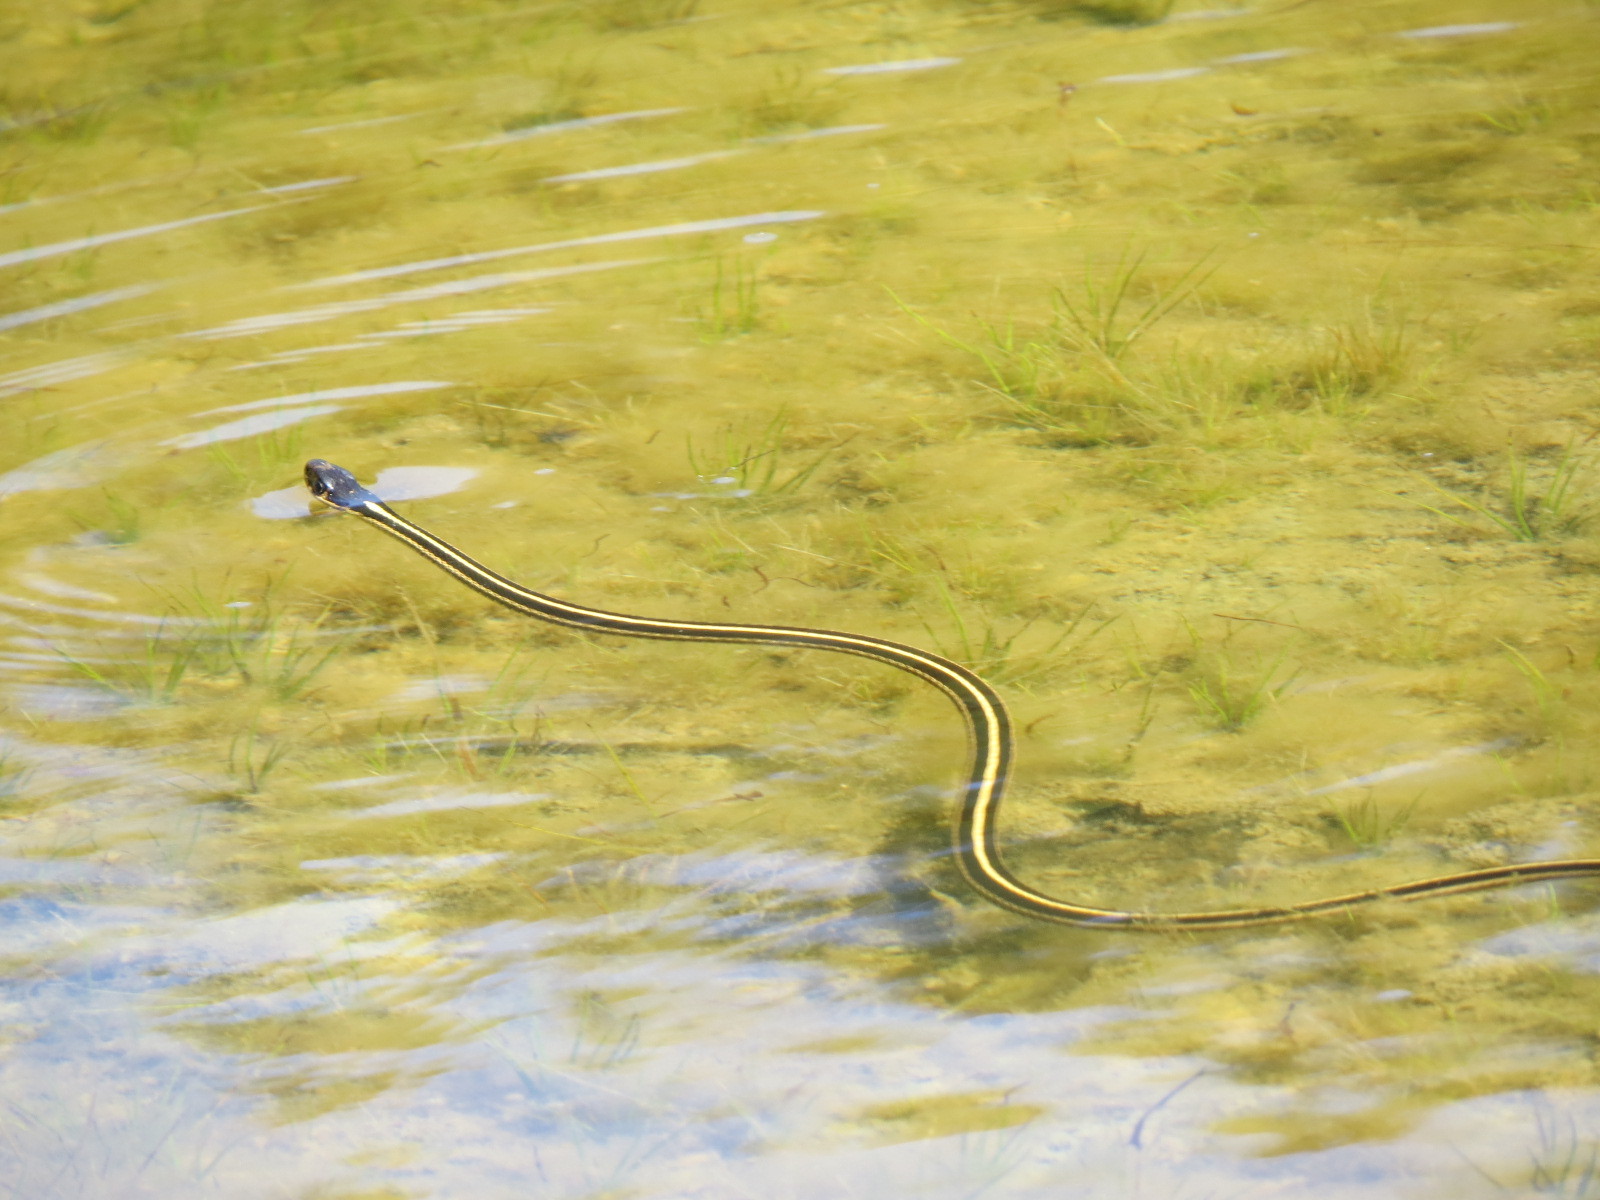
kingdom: Animalia
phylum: Chordata
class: Squamata
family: Colubridae
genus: Thamnophis
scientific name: Thamnophis sirtalis
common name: Common garter snake
